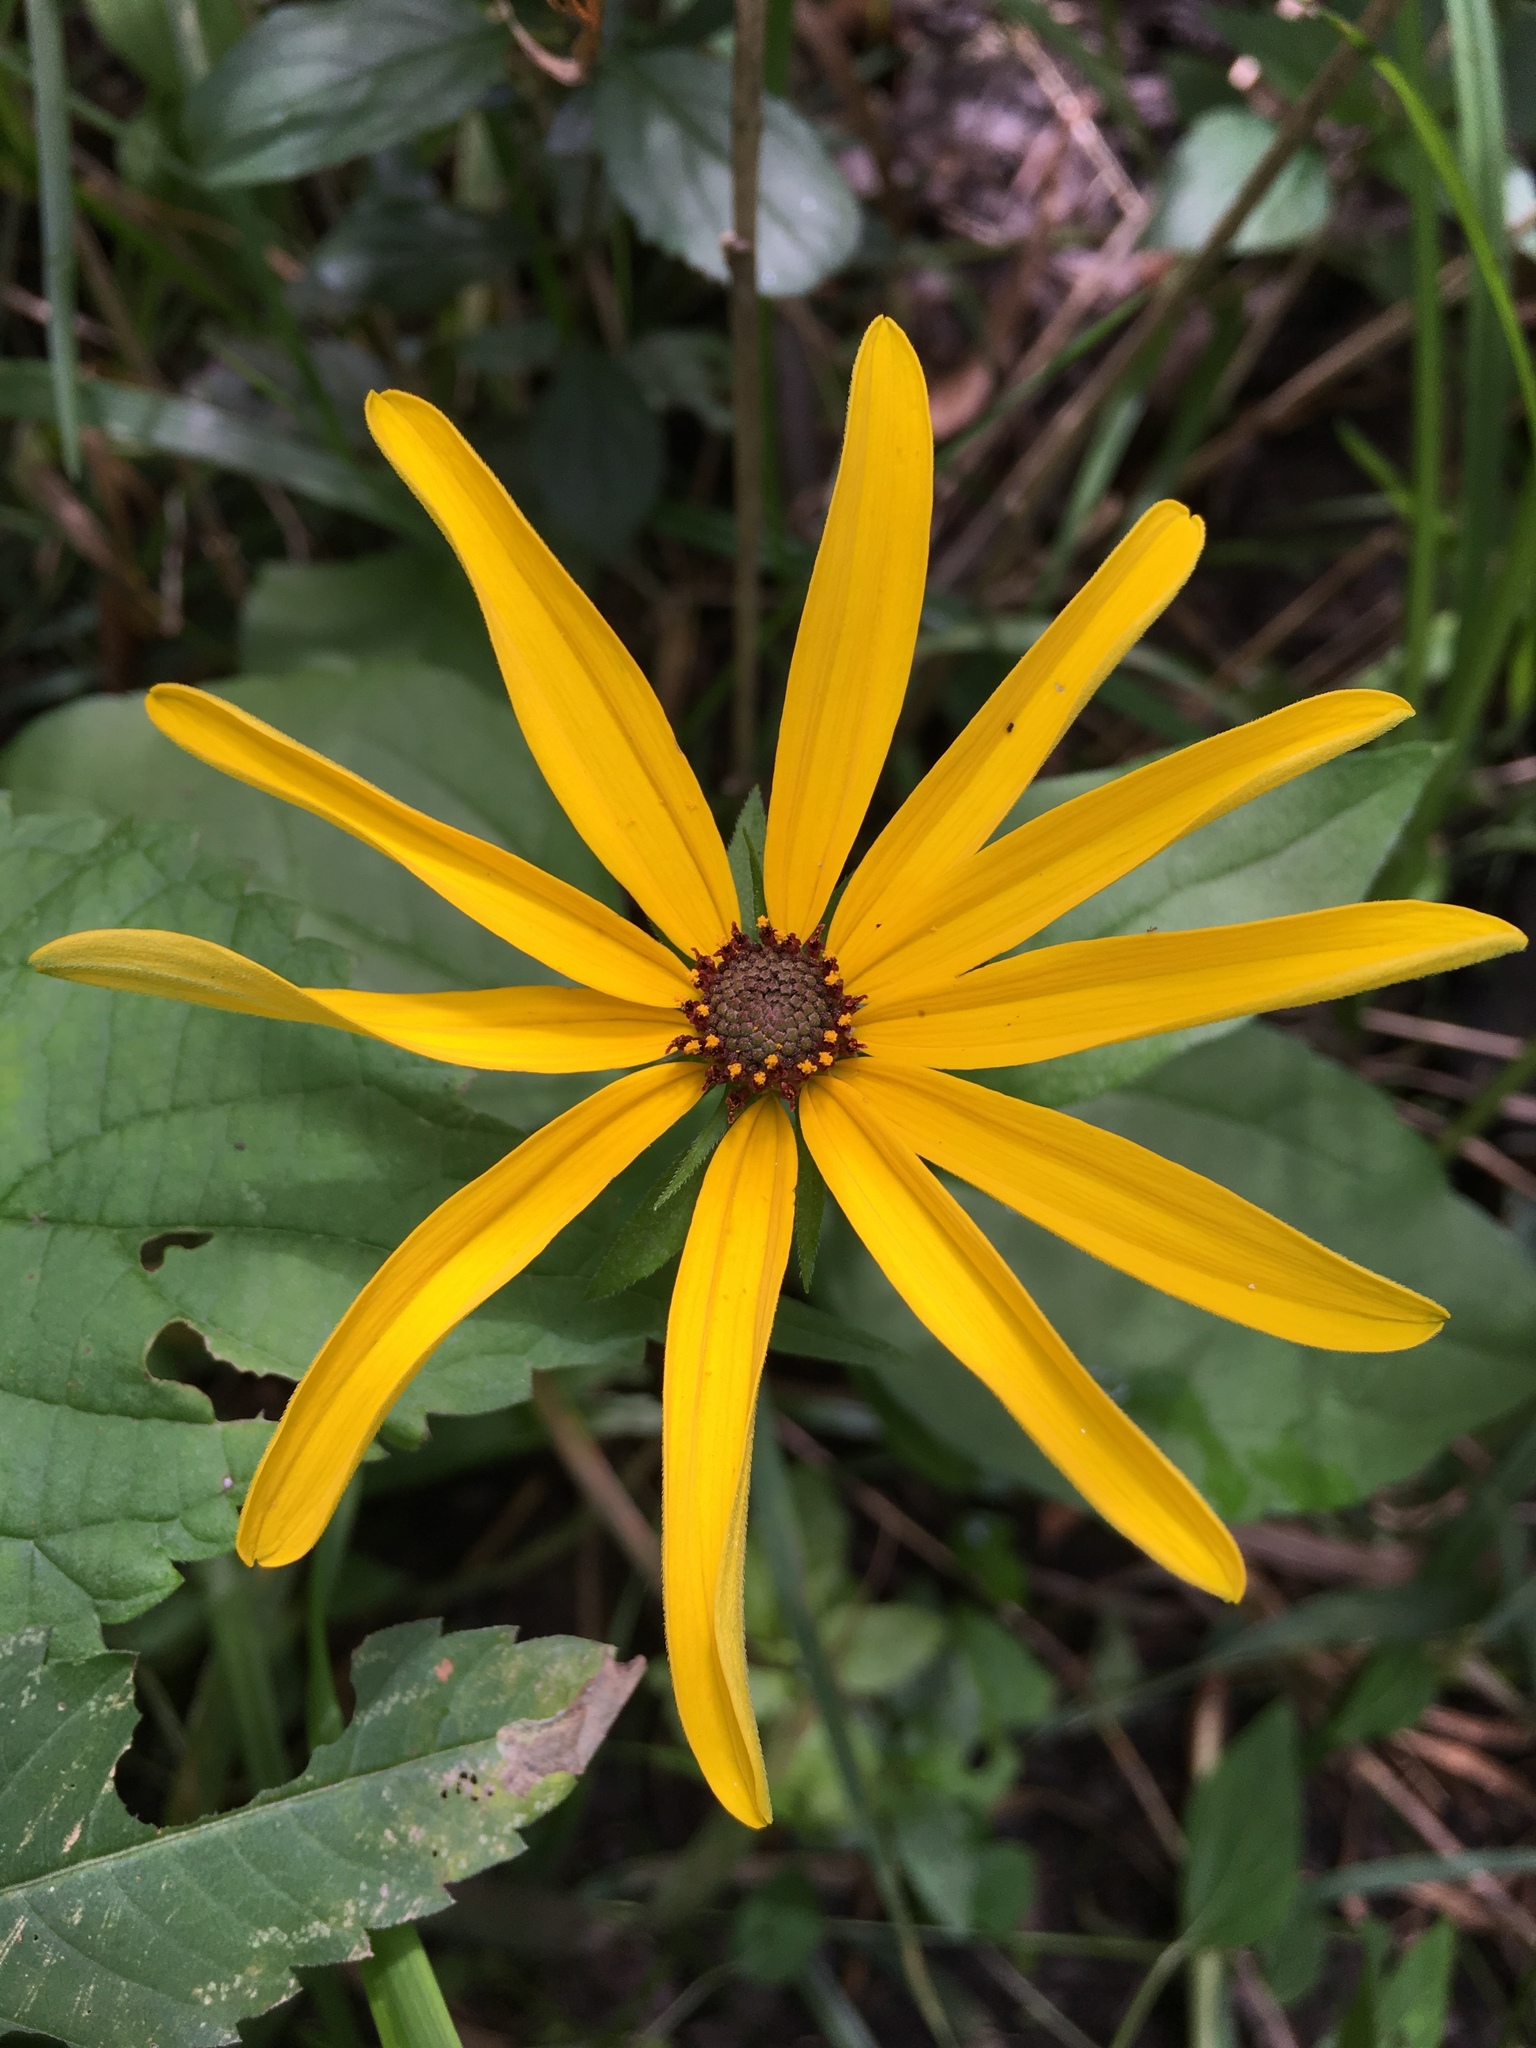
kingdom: Plantae
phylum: Tracheophyta
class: Magnoliopsida
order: Asterales
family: Asteraceae
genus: Rudbeckia
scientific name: Rudbeckia hirta
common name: Black-eyed-susan
